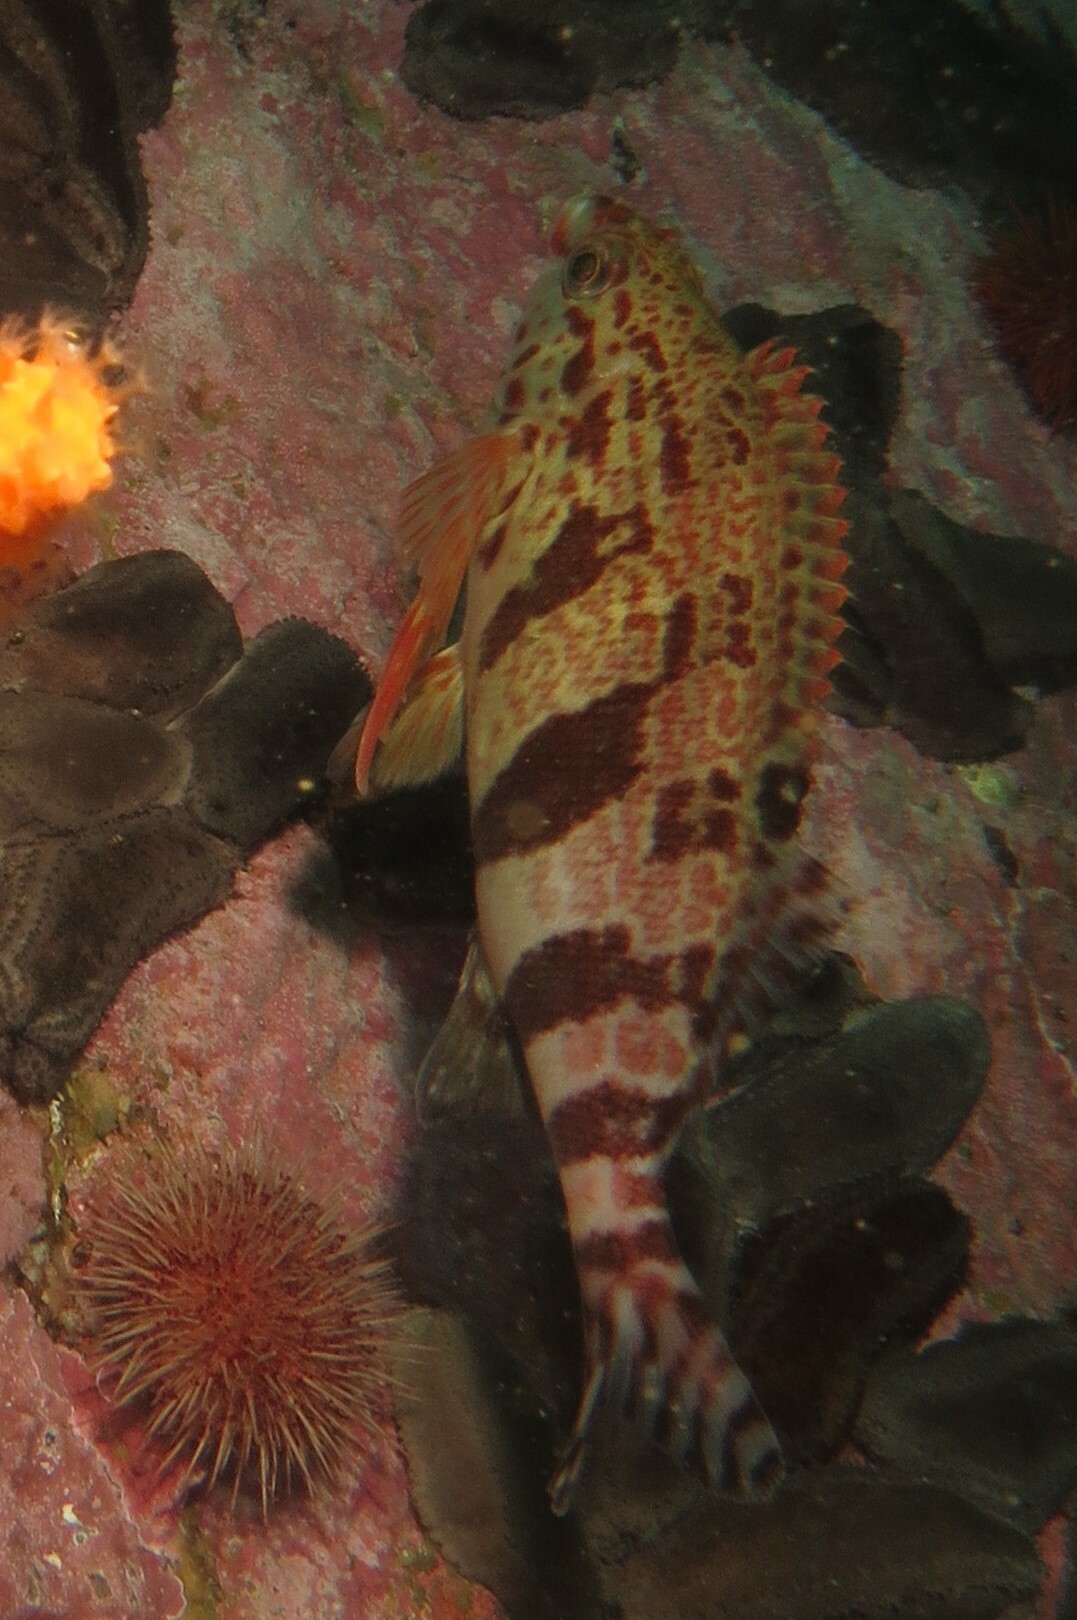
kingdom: Animalia
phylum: Chordata
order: Perciformes
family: Cheilodactylidae
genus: Cheilodactylus
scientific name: Cheilodactylus fasciatus
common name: Redfingers
